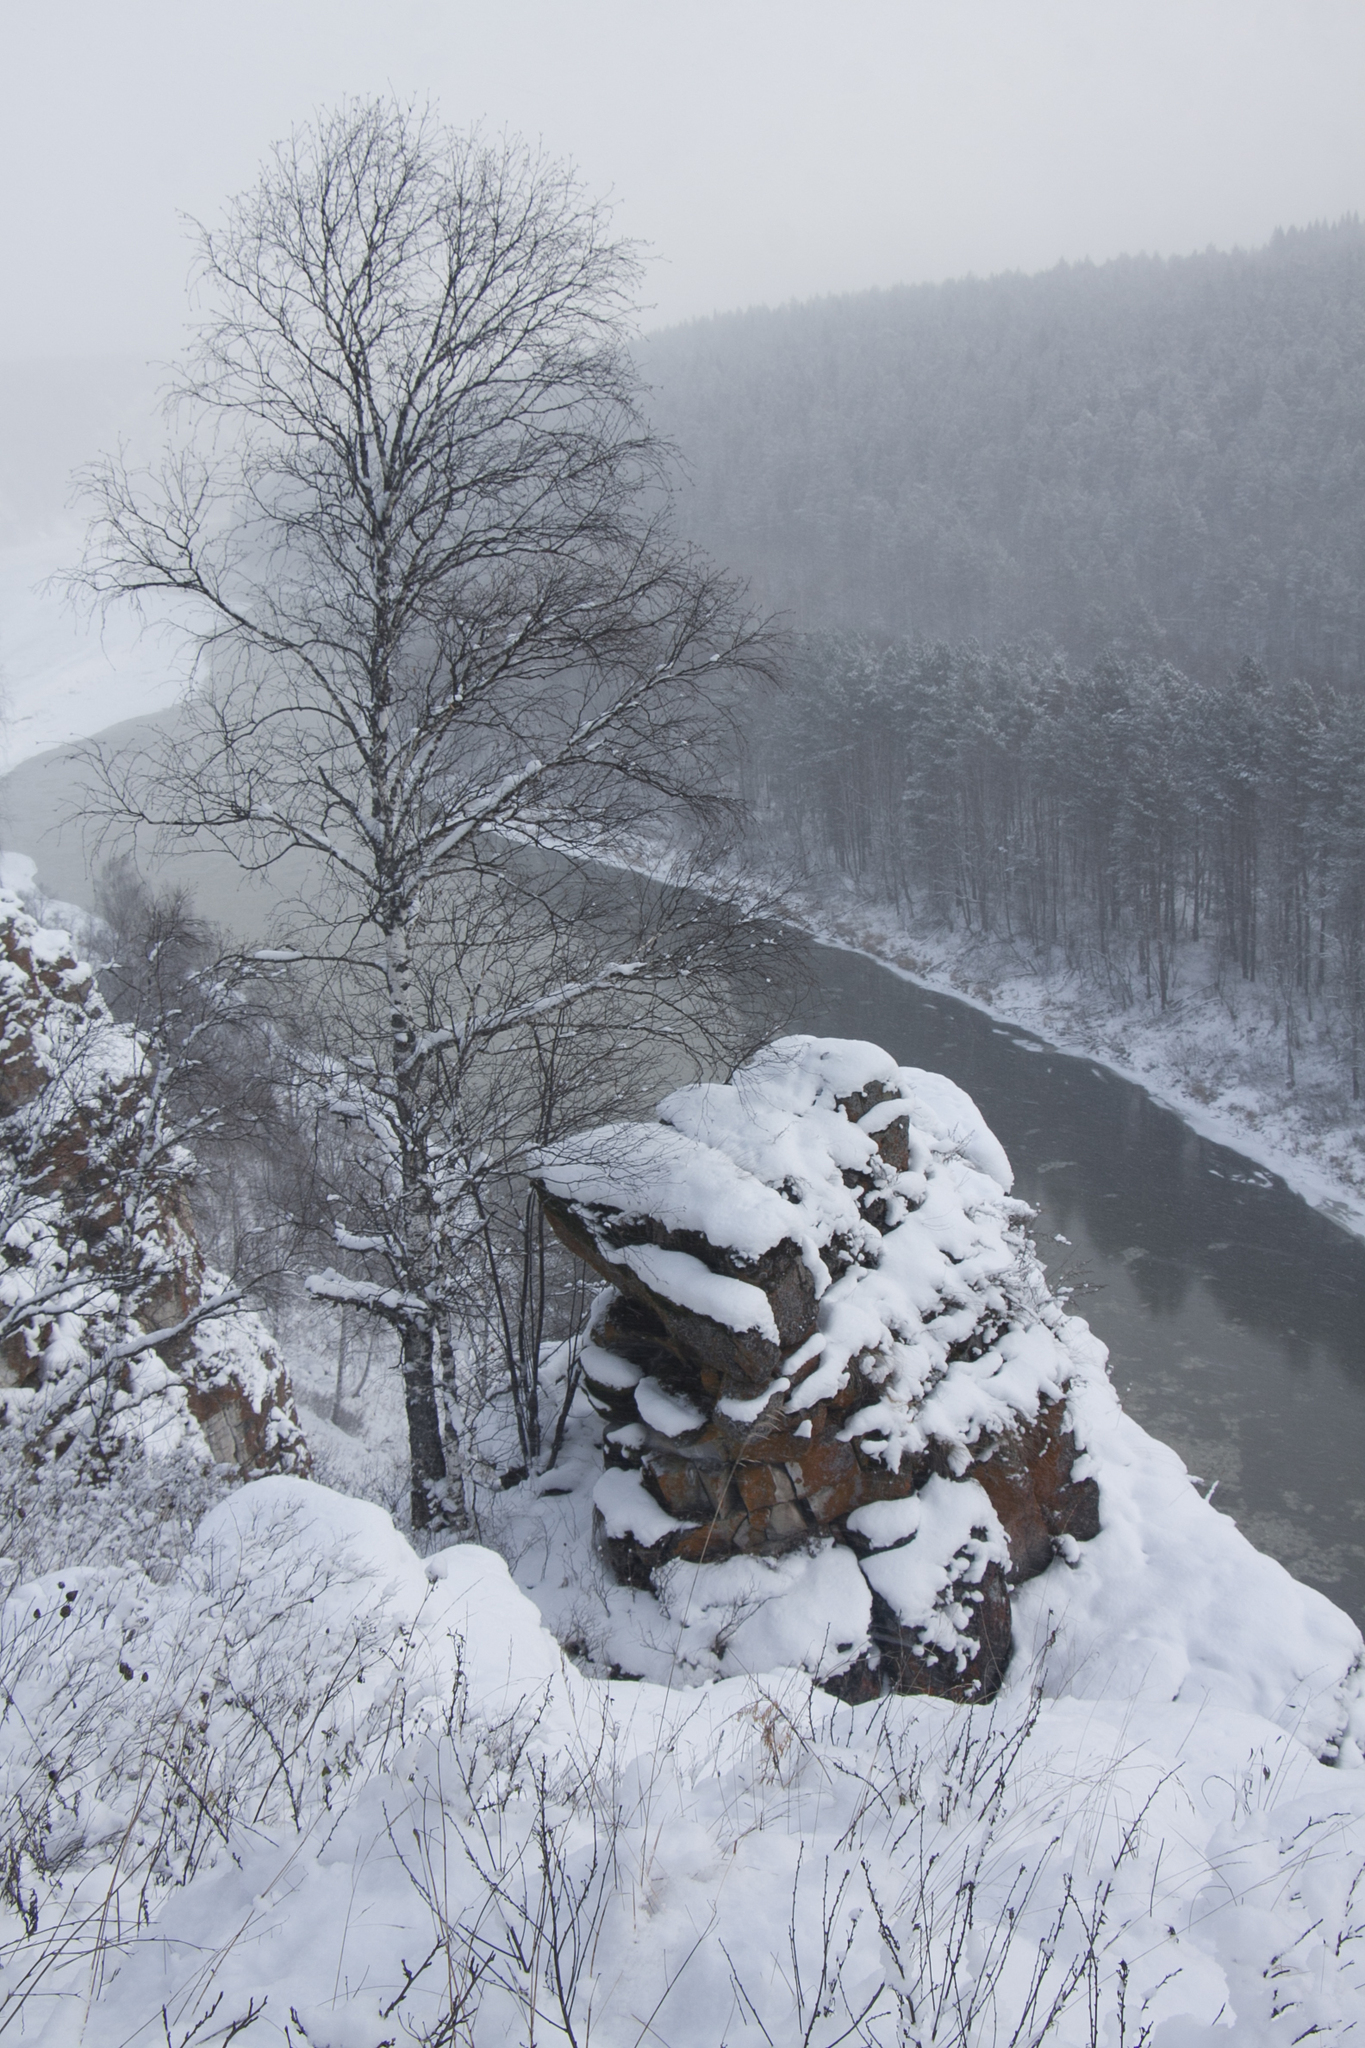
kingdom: Plantae
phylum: Tracheophyta
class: Magnoliopsida
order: Fagales
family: Betulaceae
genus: Betula
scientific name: Betula pendula
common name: Silver birch
